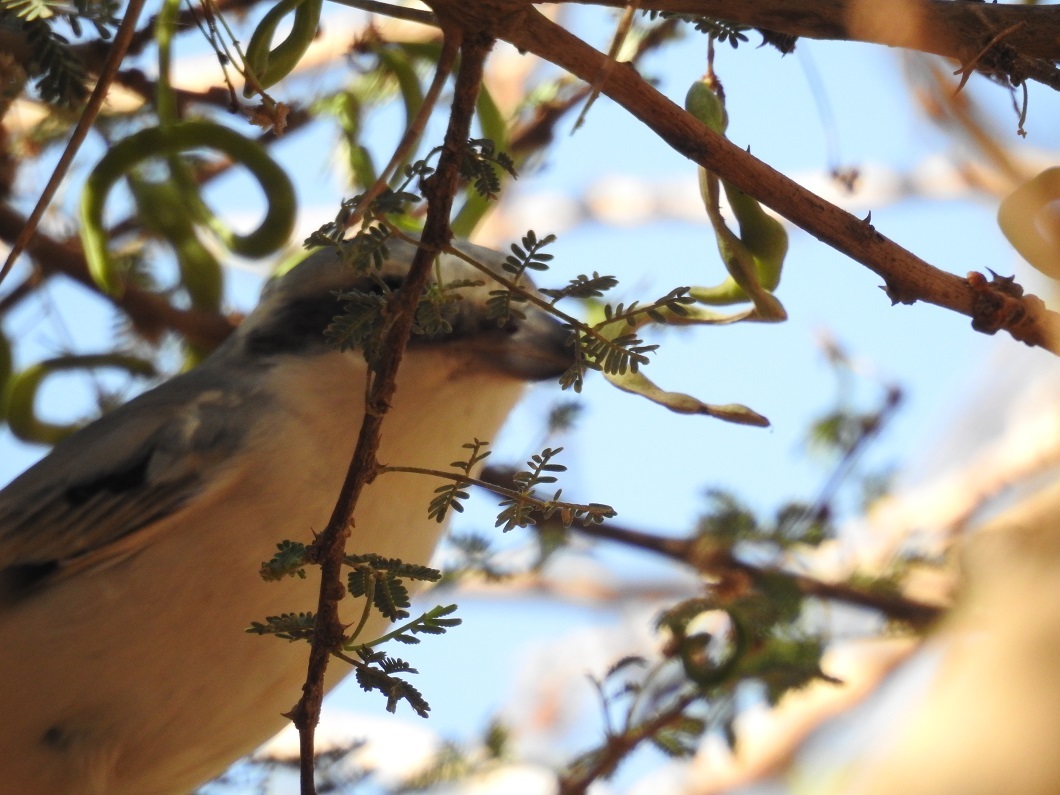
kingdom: Animalia
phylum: Chordata
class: Aves
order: Passeriformes
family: Laniidae
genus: Lanius
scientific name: Lanius excubitor
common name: Great grey shrike
